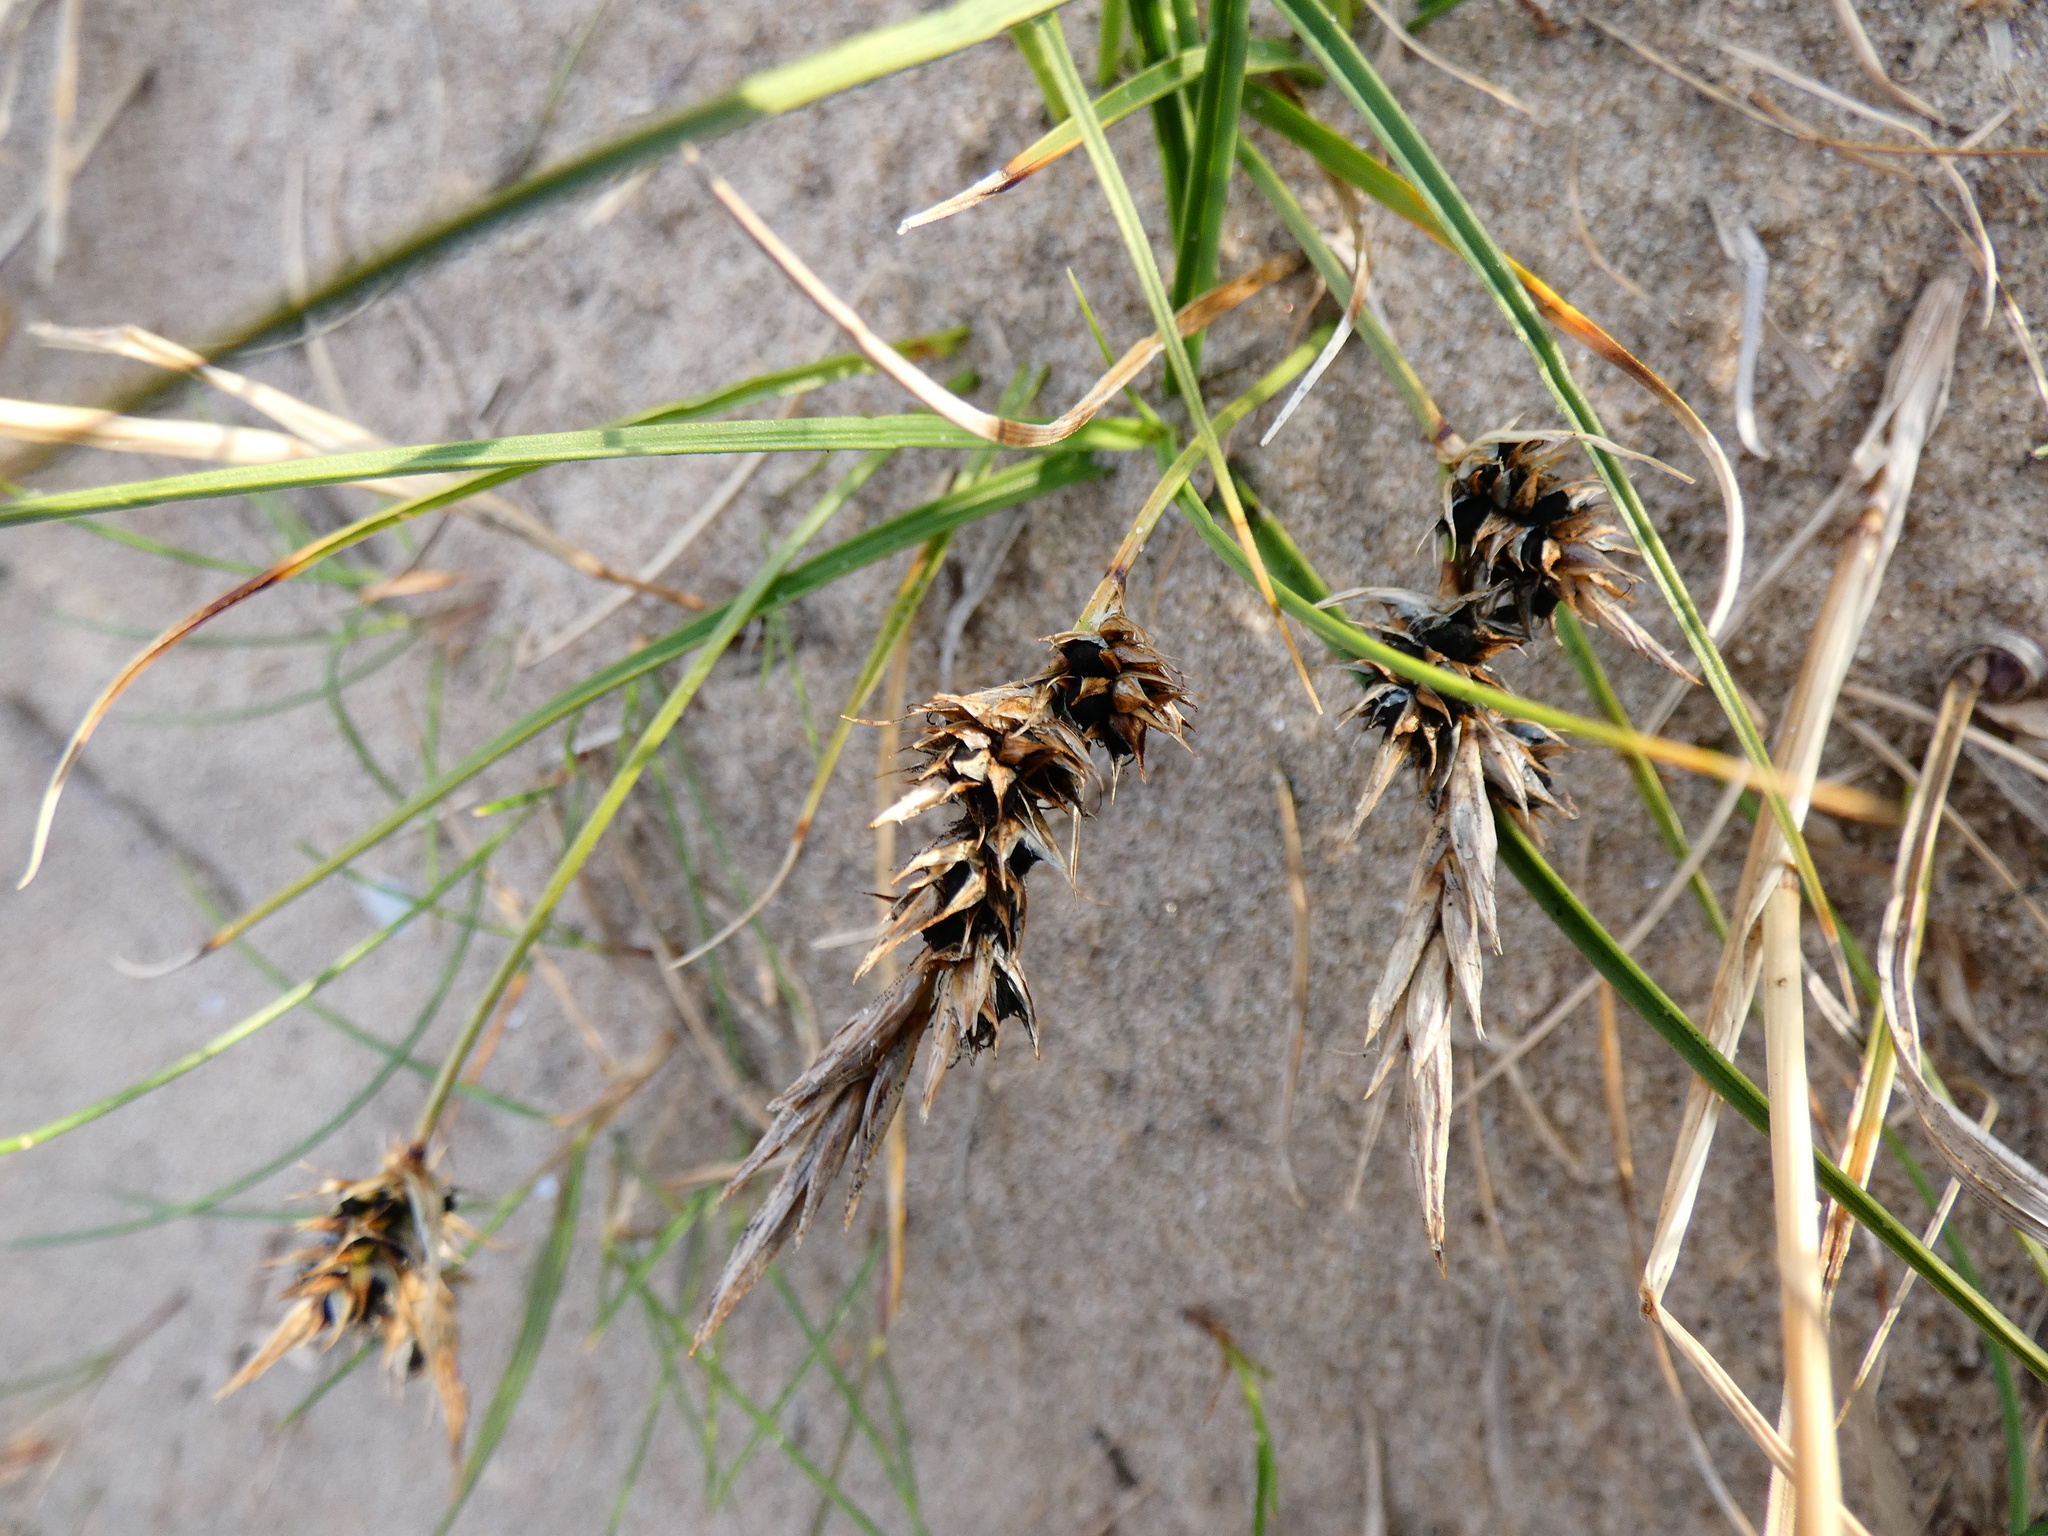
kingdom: Fungi
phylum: Basidiomycota
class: Ustilaginomycetes
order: Ustilaginales
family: Anthracoideaceae
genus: Anthracoidea
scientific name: Anthracoidea arenariae
